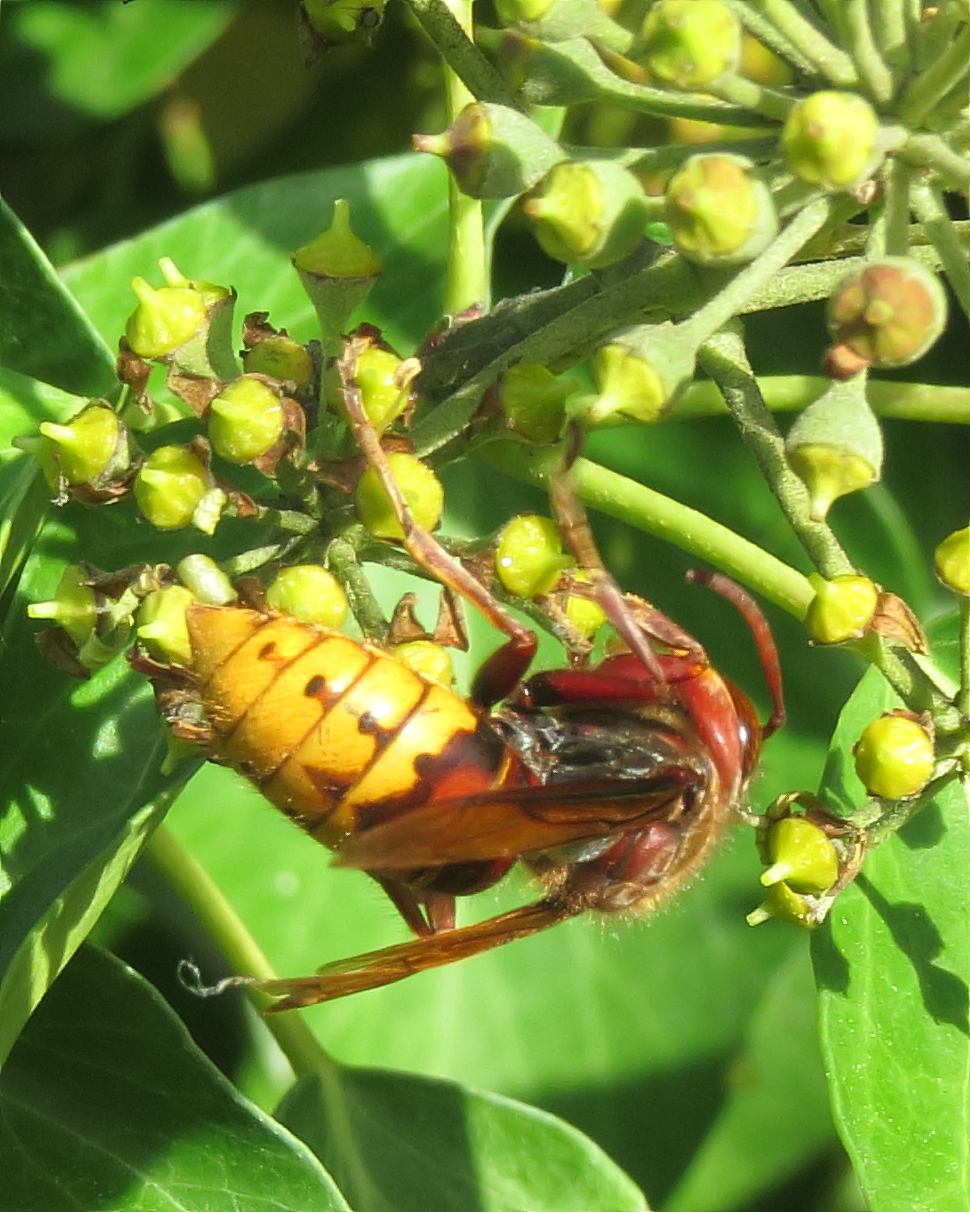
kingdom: Animalia
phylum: Arthropoda
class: Insecta
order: Hymenoptera
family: Vespidae
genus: Vespa
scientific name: Vespa crabro
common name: Hornet
